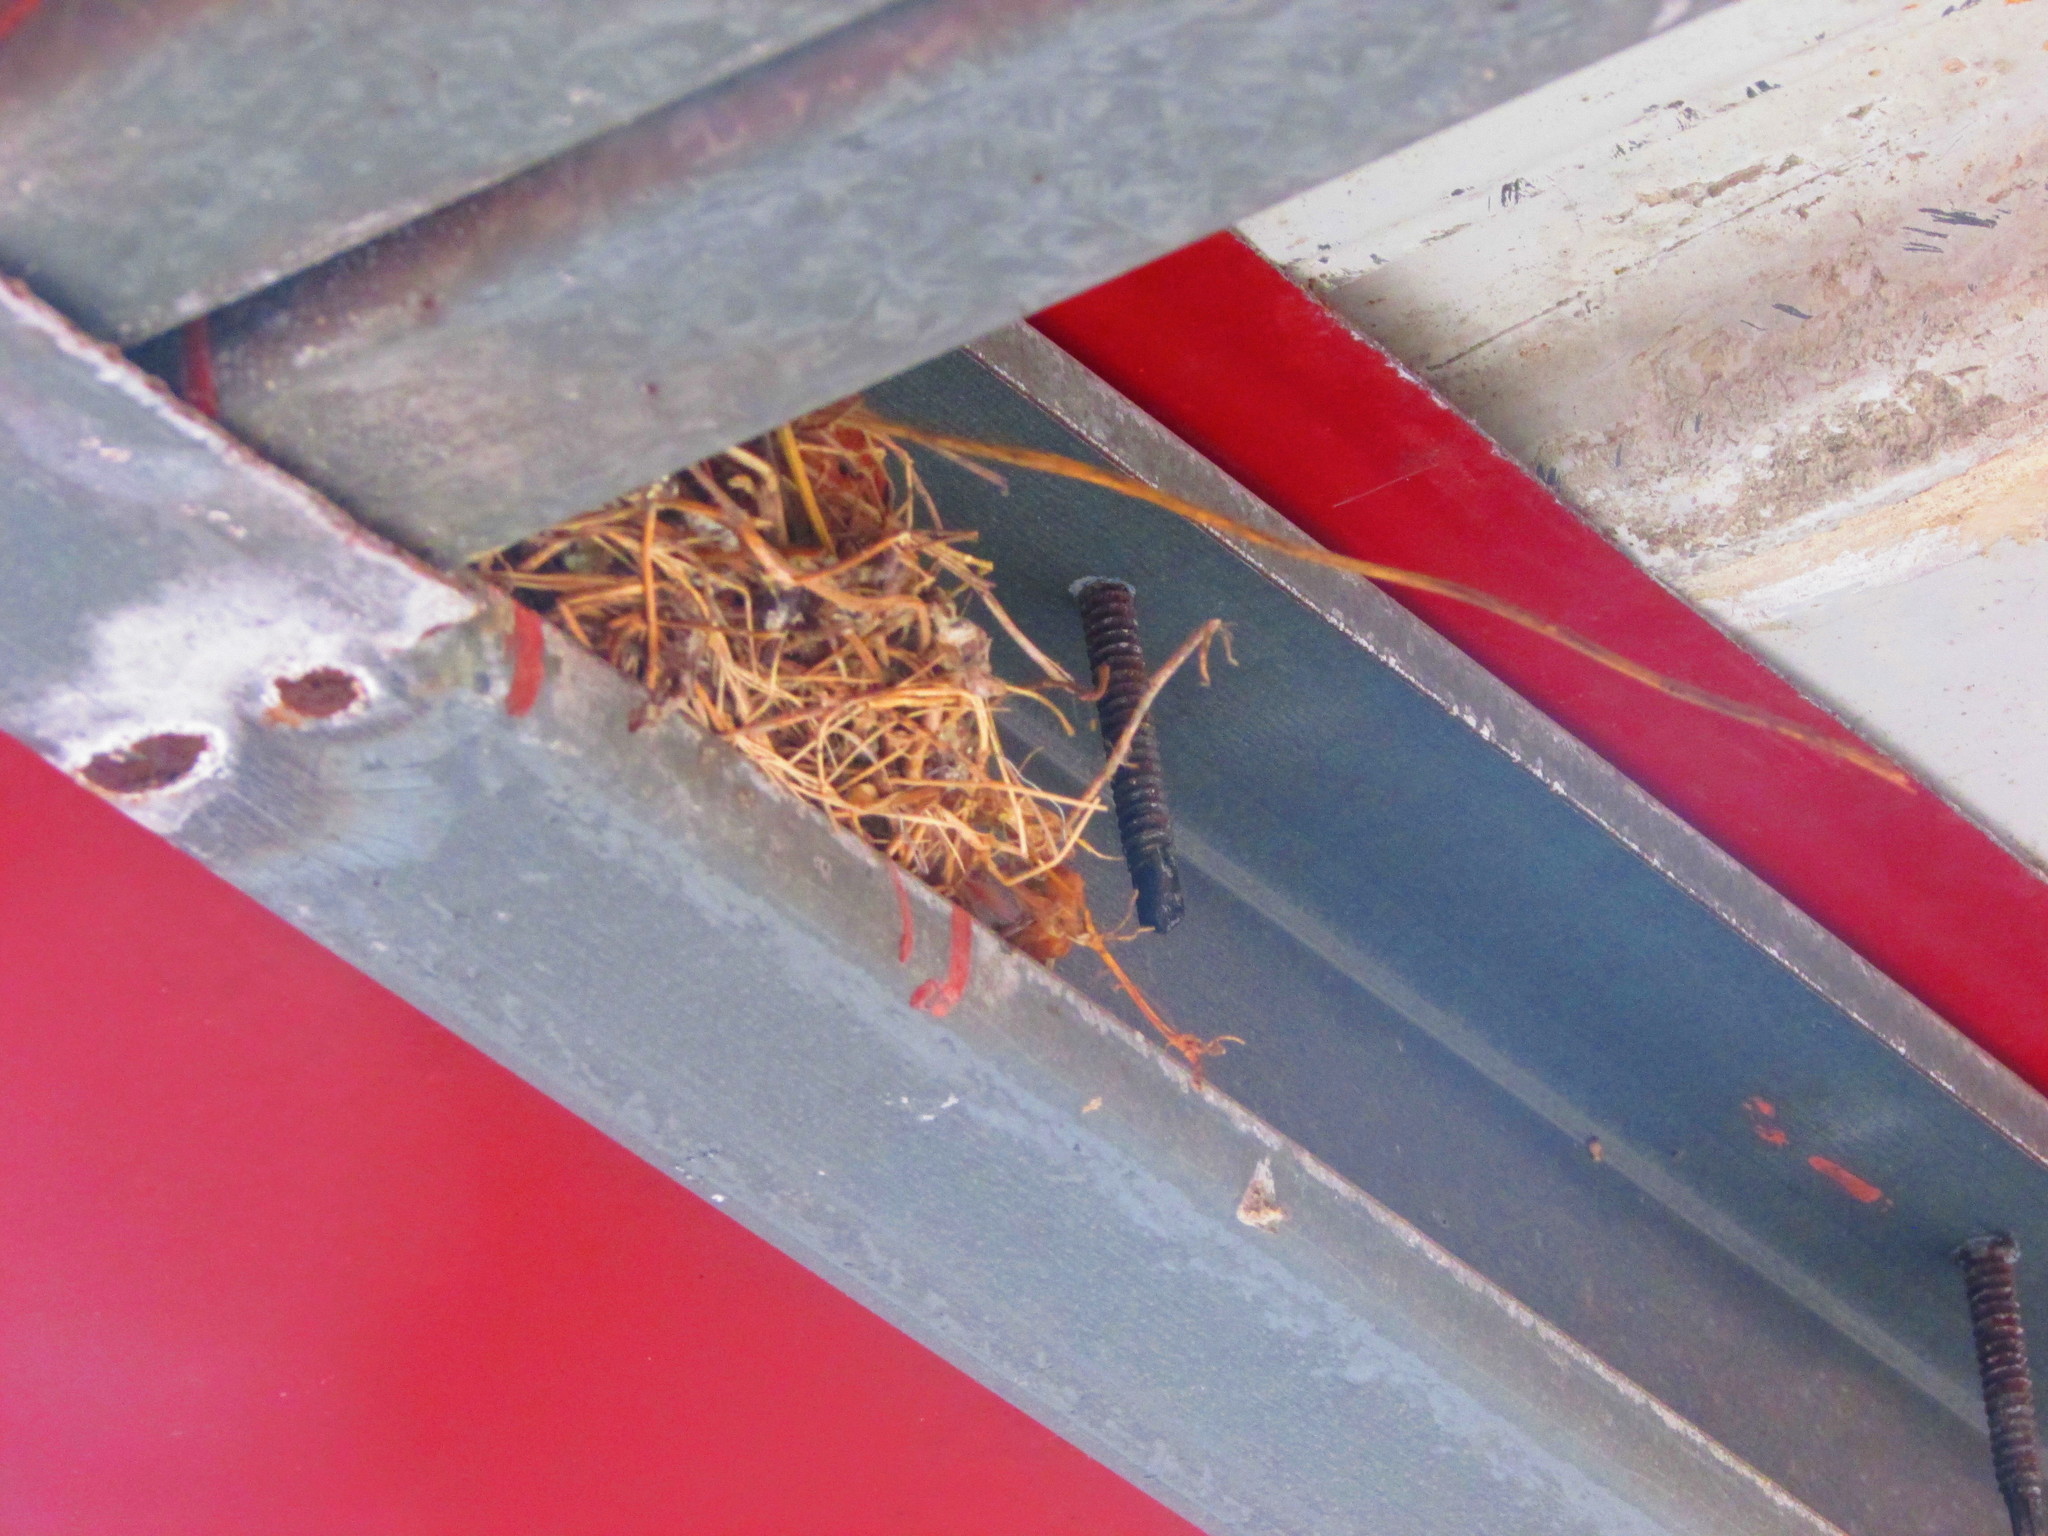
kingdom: Animalia
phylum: Chordata
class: Aves
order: Columbiformes
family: Columbidae
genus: Columbina
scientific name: Columbina talpacoti
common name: Ruddy ground dove
